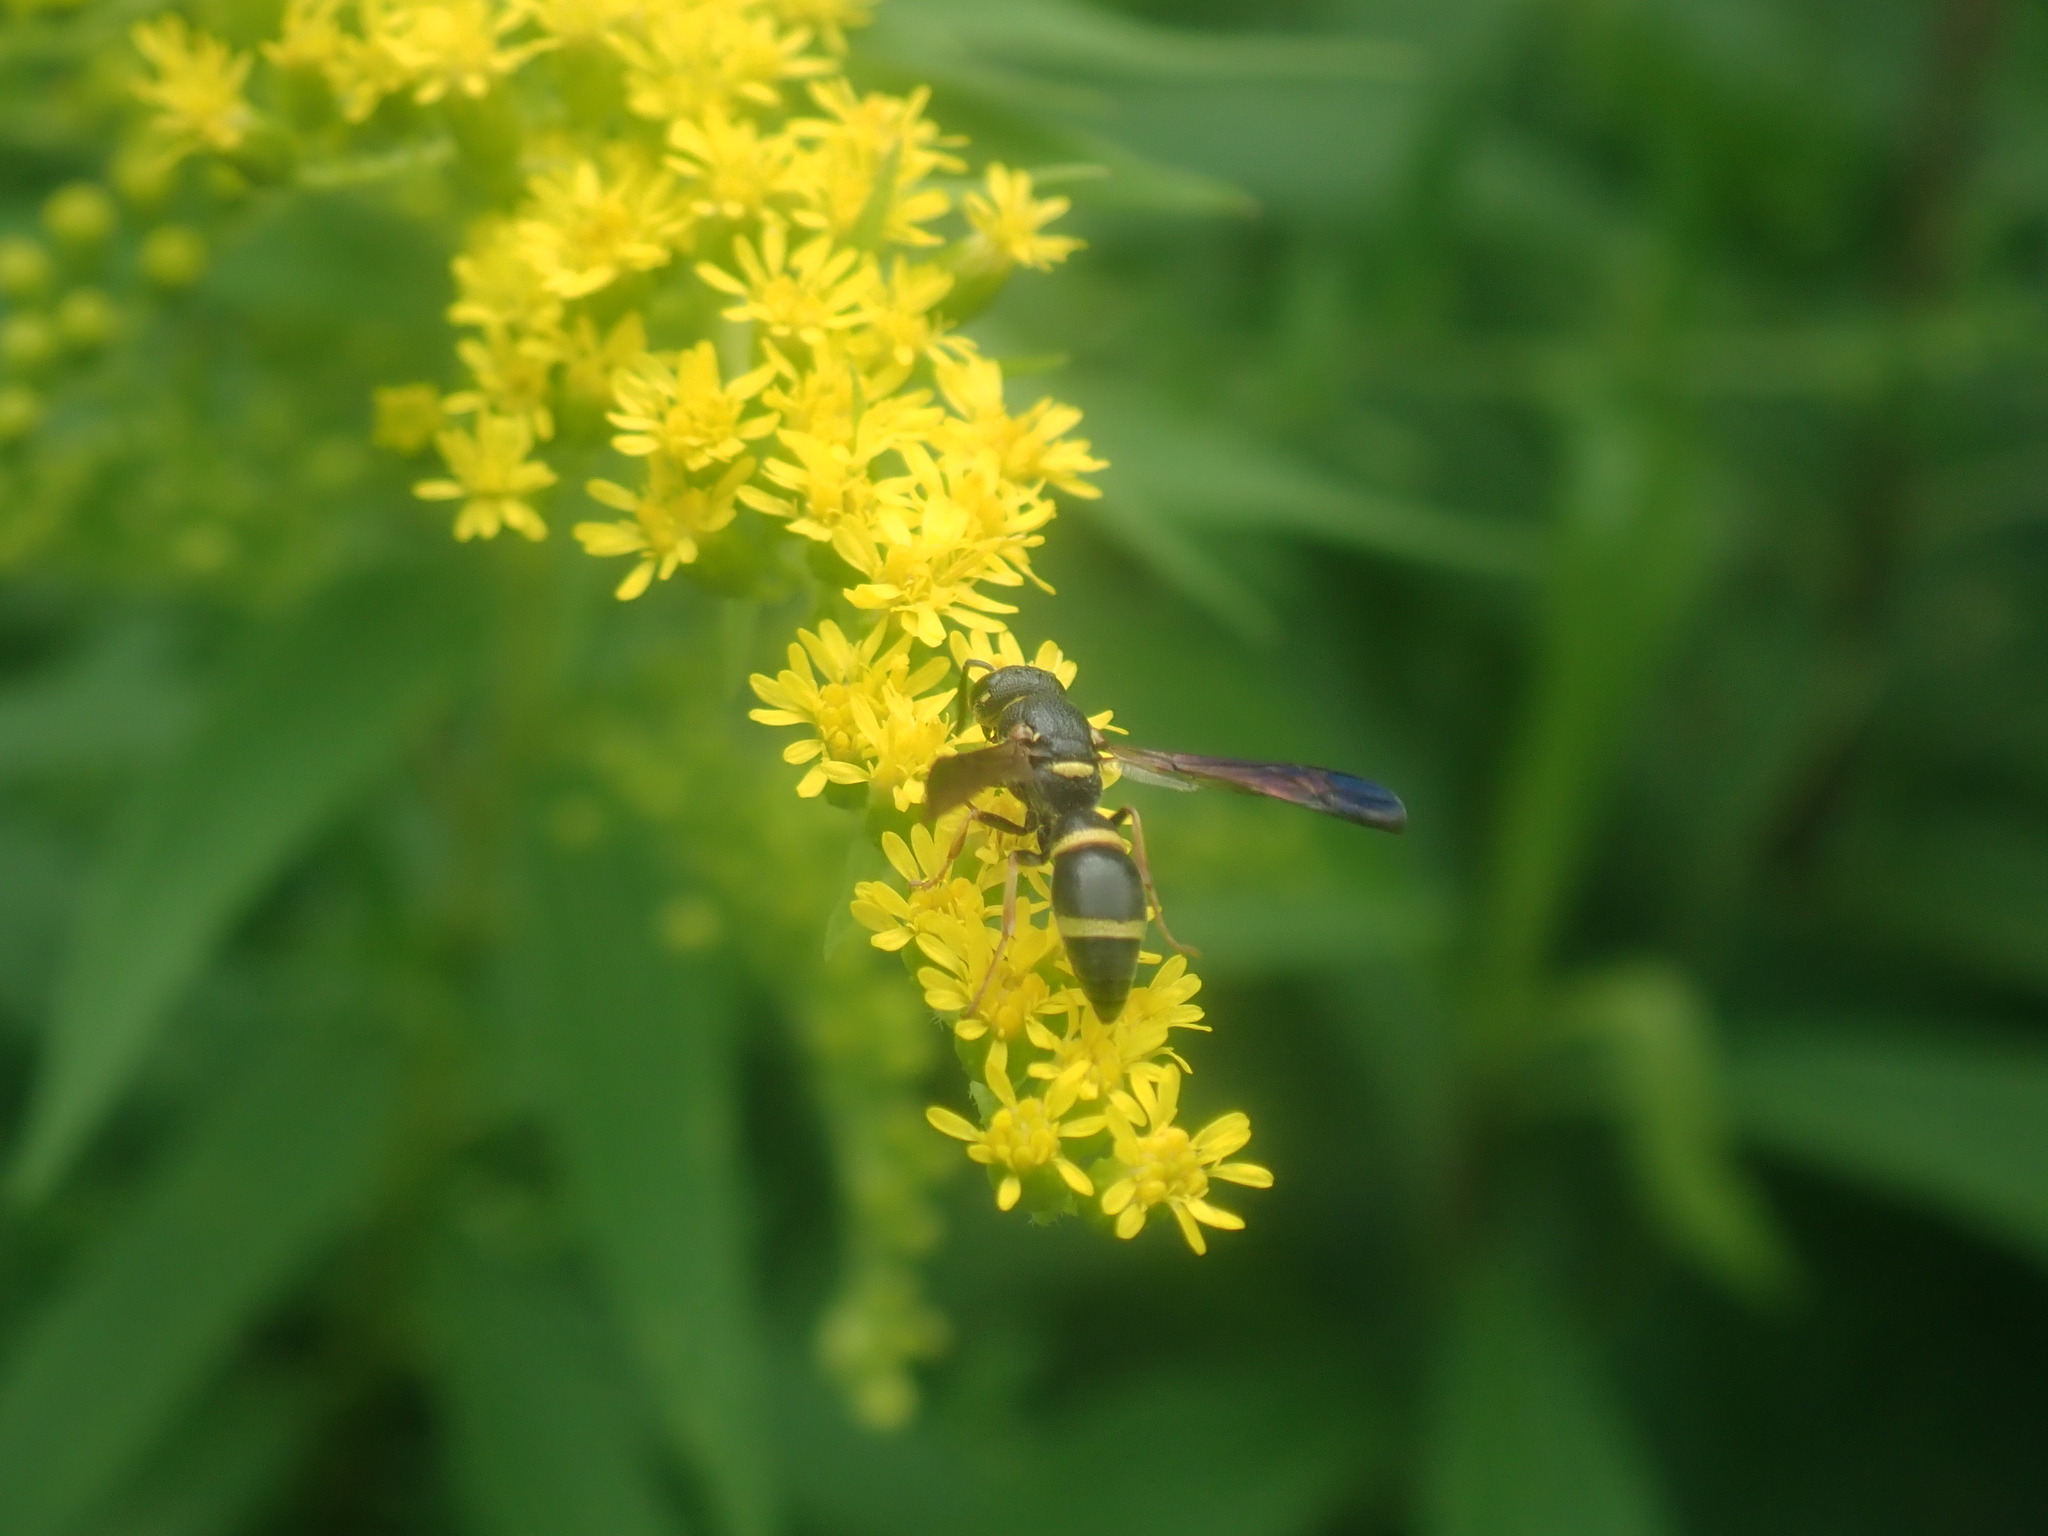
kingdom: Animalia
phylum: Arthropoda
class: Insecta
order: Hymenoptera
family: Eumenidae
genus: Parancistrocerus
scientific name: Parancistrocerus perennis
